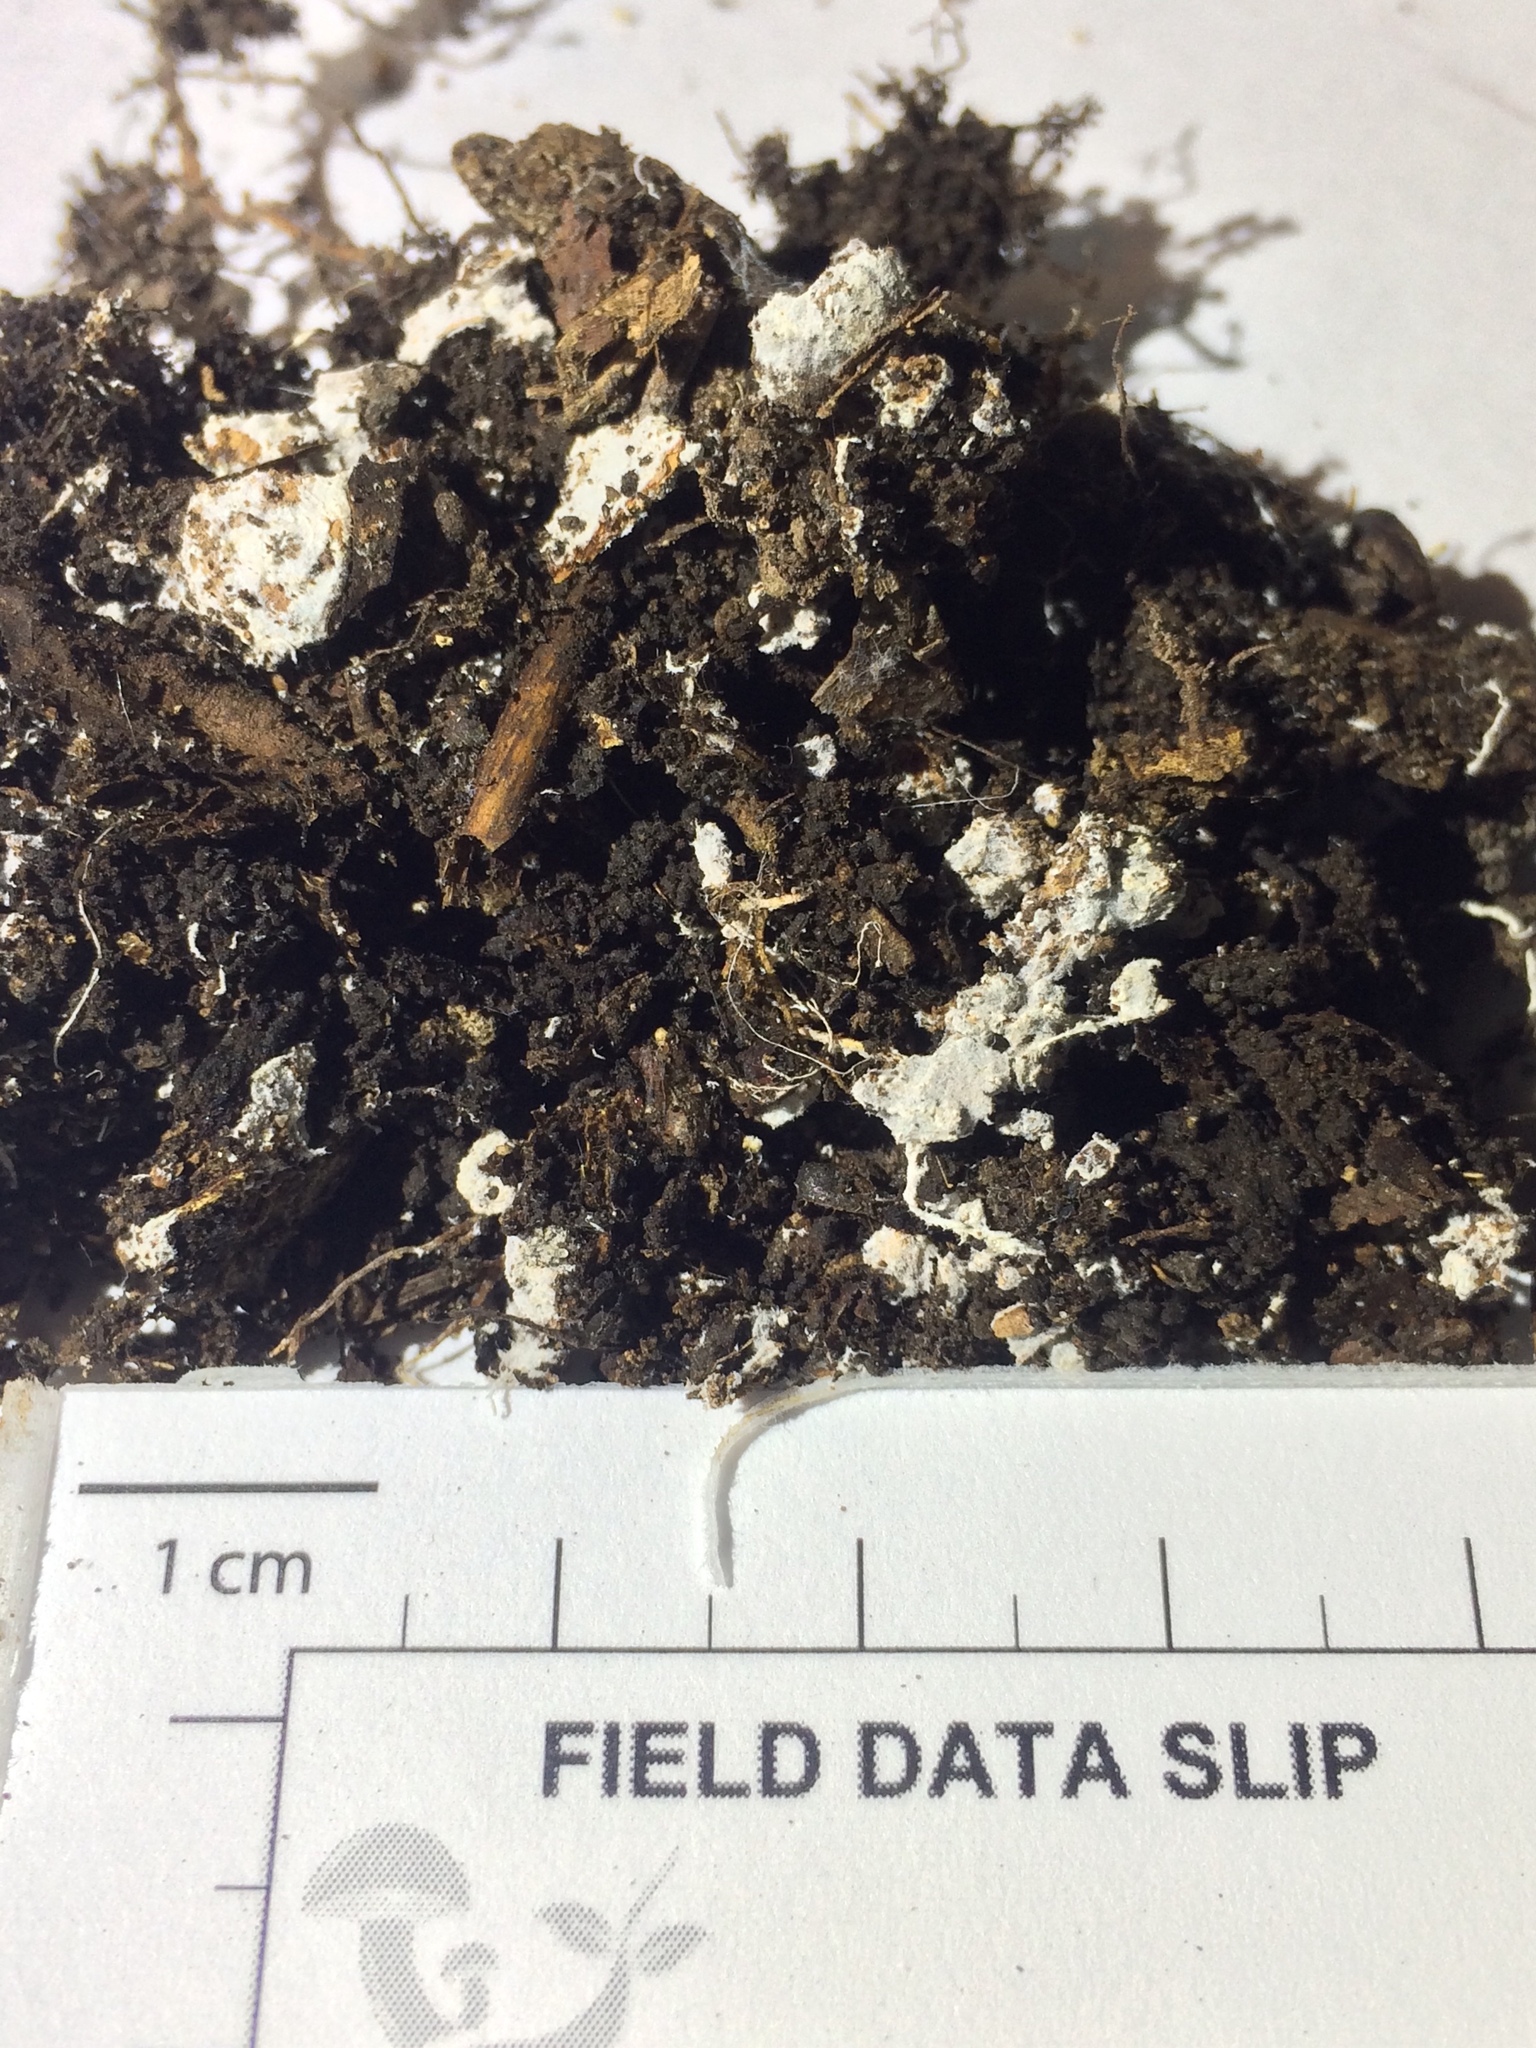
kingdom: Fungi
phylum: Basidiomycota
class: Agaricomycetes
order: Agaricales
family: Agaricaceae
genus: Echinoderma
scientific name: Echinoderma asperum
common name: Freckled dapperling
